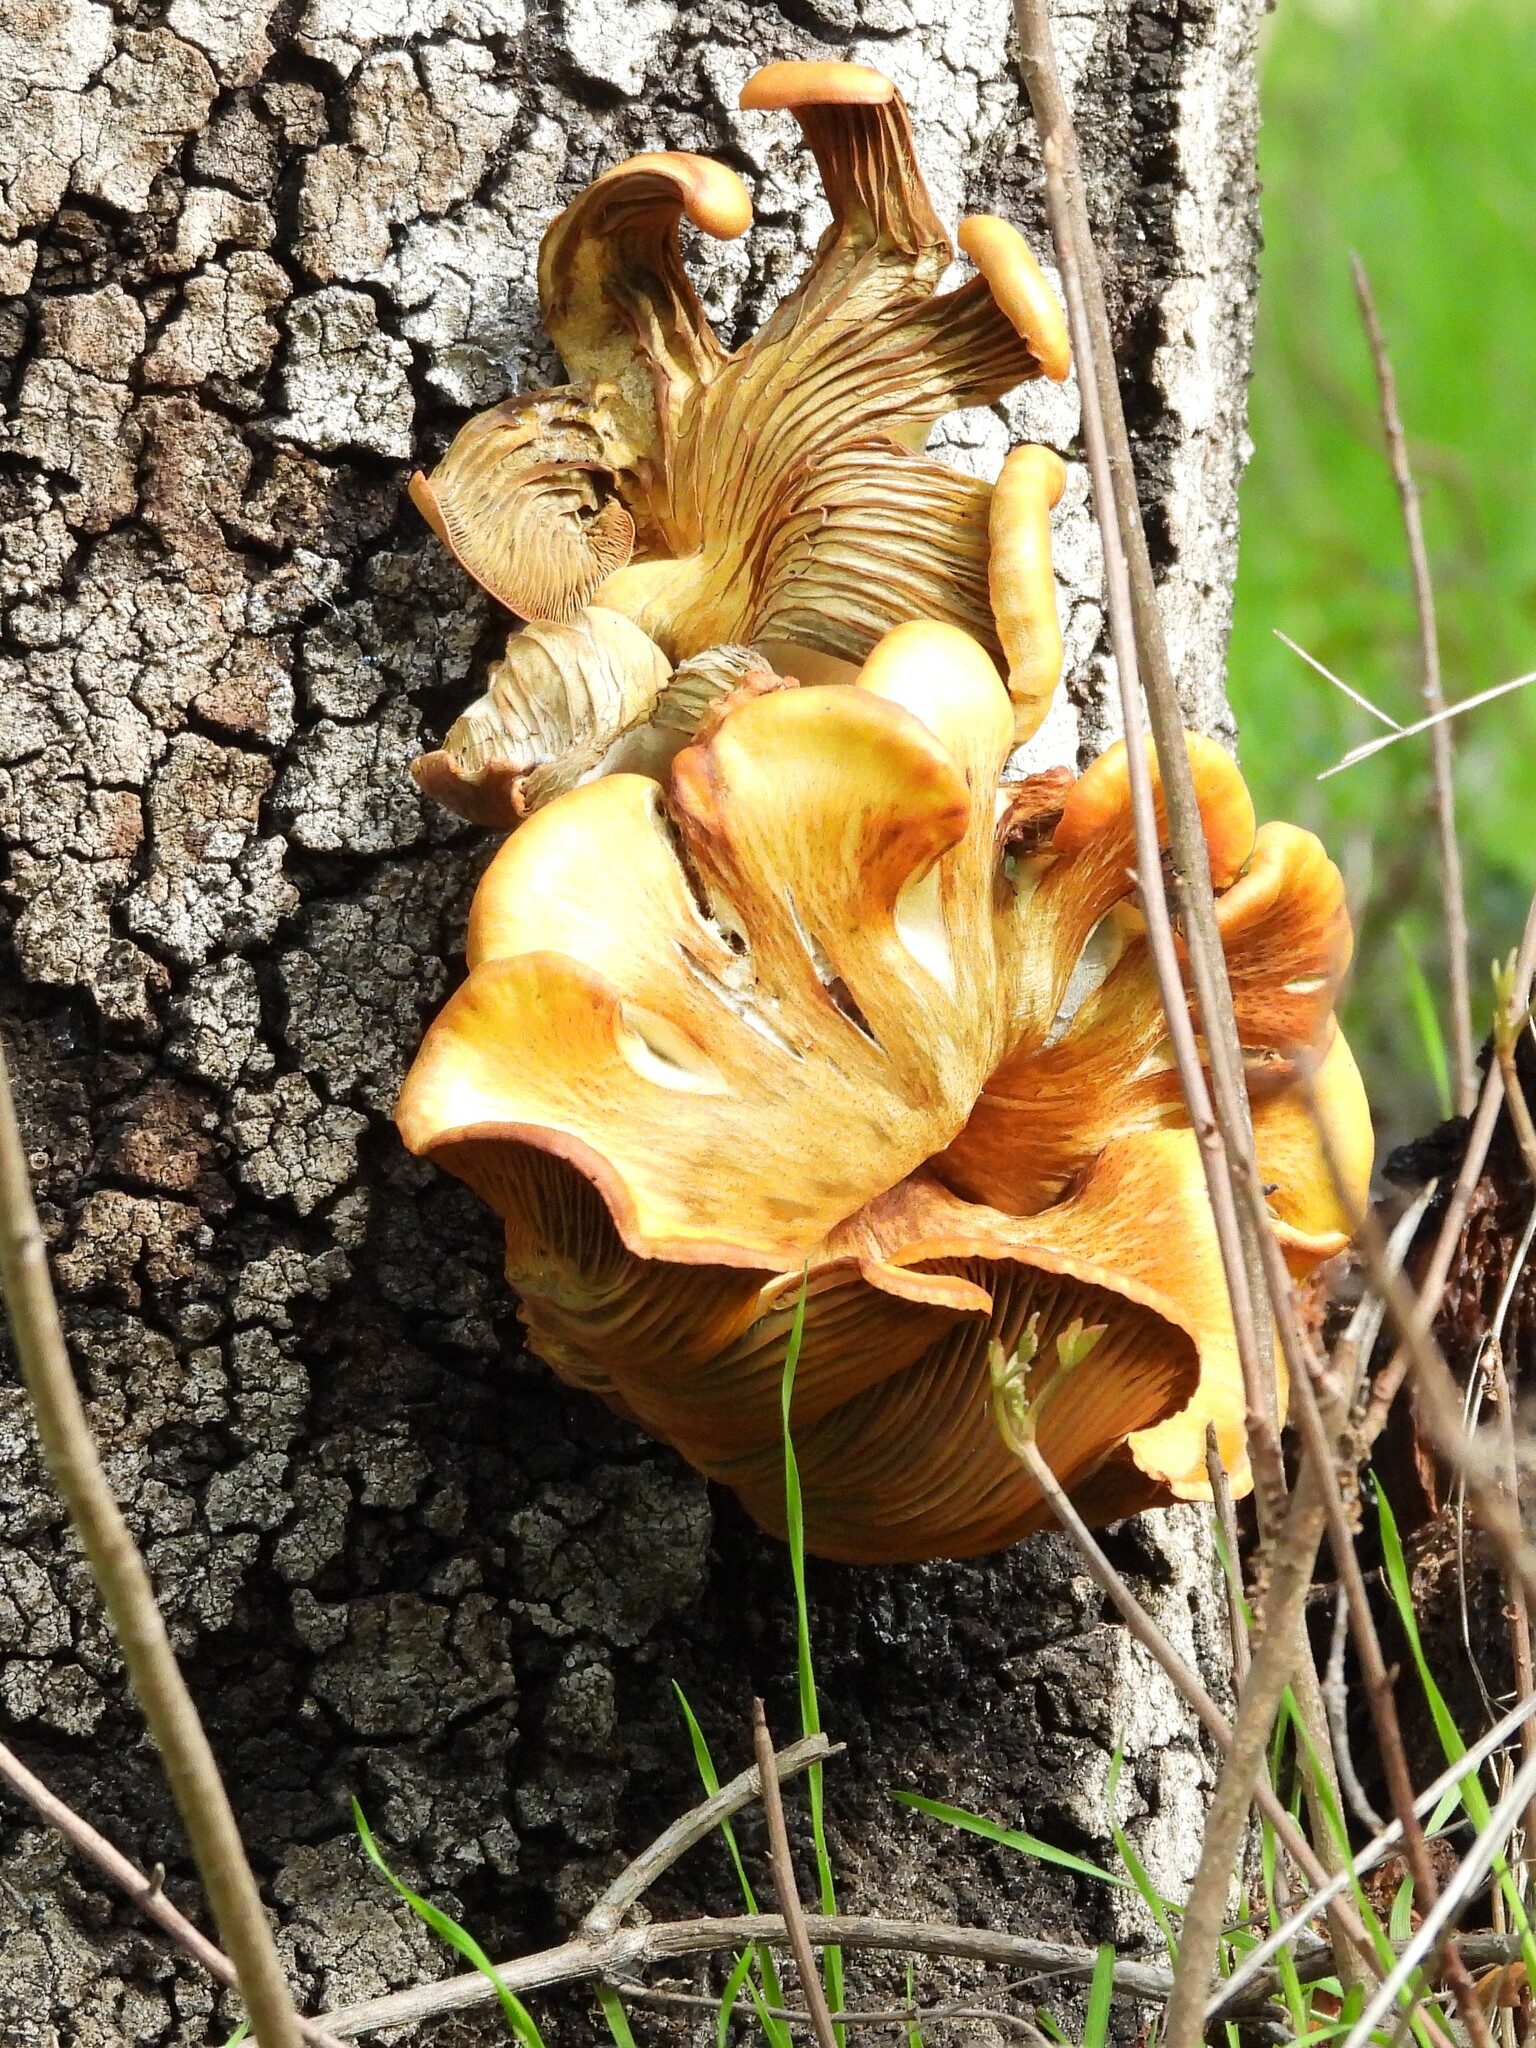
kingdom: Fungi
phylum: Basidiomycota
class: Agaricomycetes
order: Agaricales
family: Omphalotaceae
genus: Omphalotus
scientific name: Omphalotus olivascens
